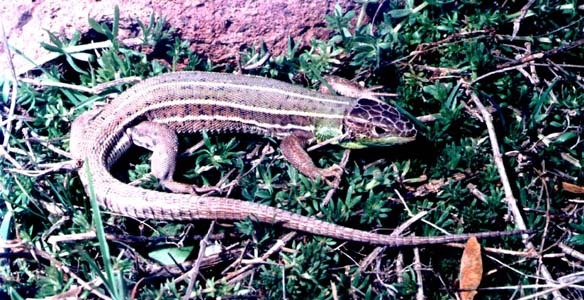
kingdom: Animalia
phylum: Chordata
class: Squamata
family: Lacertidae
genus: Lacerta
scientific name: Lacerta strigata
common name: Caspian green lizard
